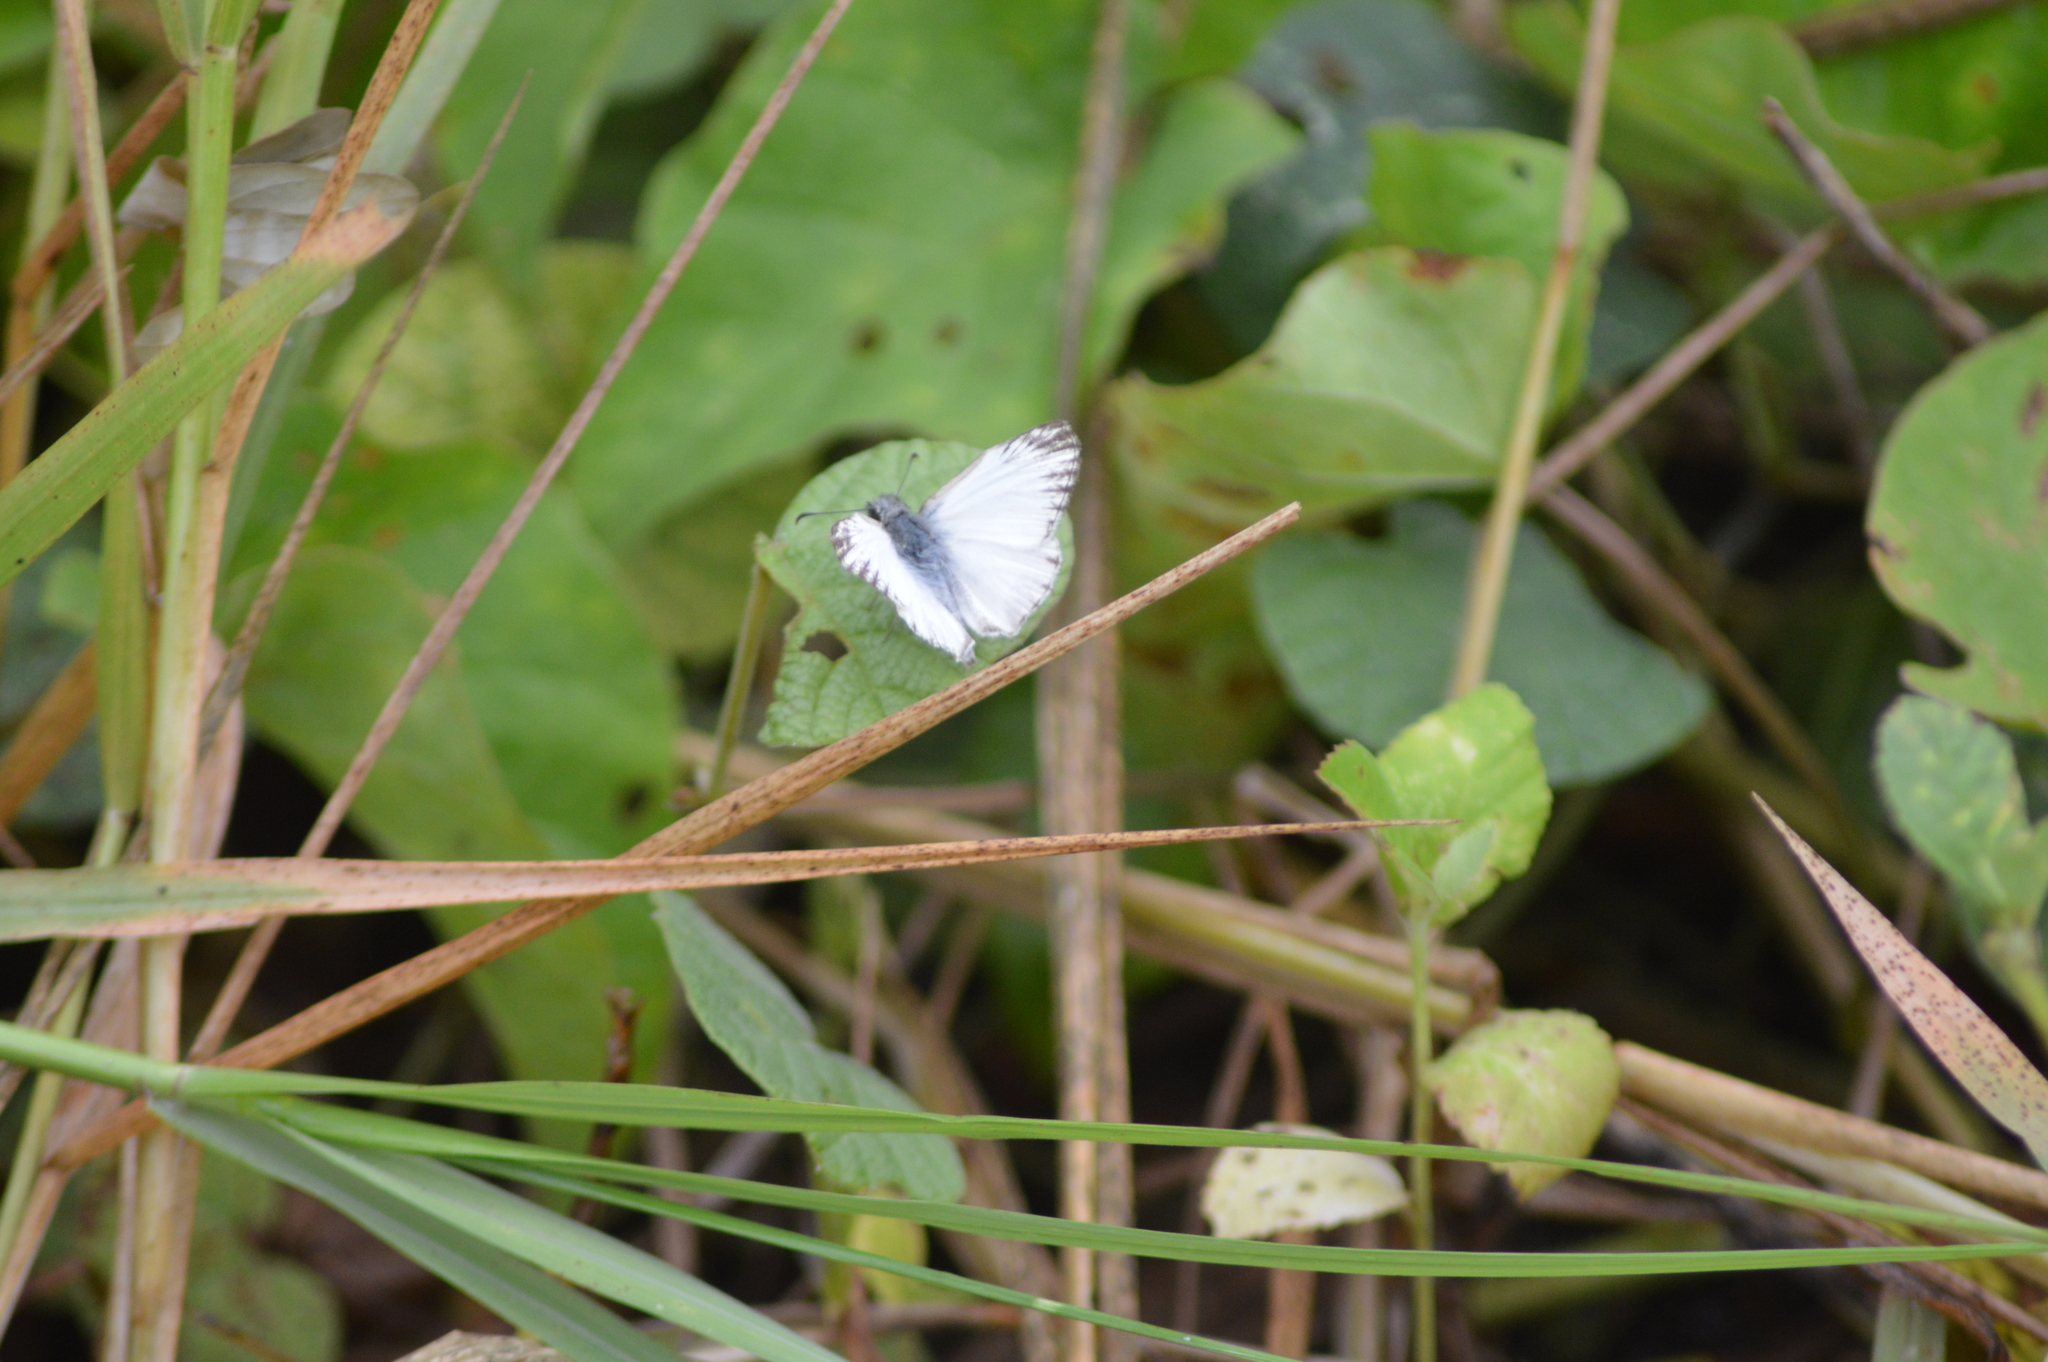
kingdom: Animalia
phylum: Arthropoda
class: Insecta
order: Lepidoptera
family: Hesperiidae
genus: Heliopetes
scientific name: Heliopetes macaira
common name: Turk's-cap white-skipper
